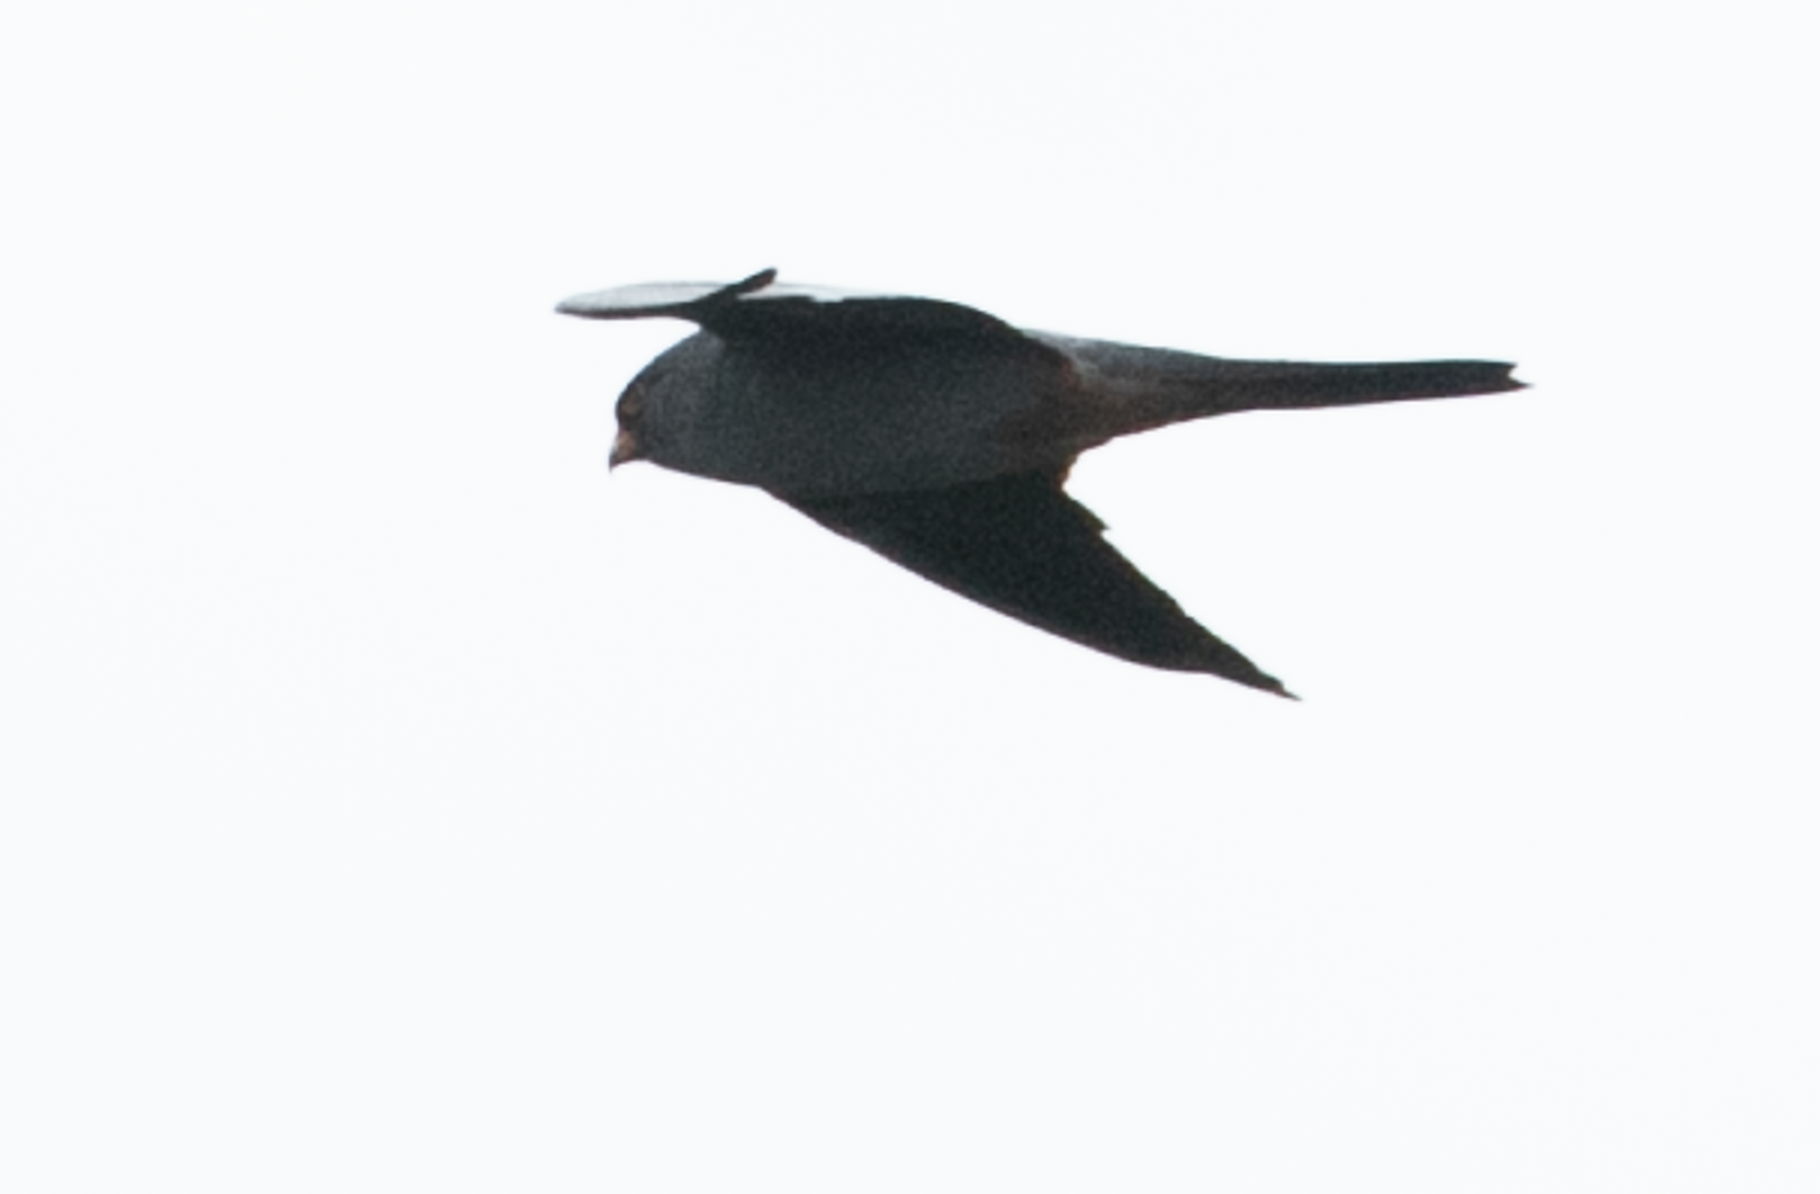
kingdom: Animalia
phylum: Chordata
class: Aves
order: Falconiformes
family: Falconidae
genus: Falco
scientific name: Falco vespertinus
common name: Red-footed falcon
